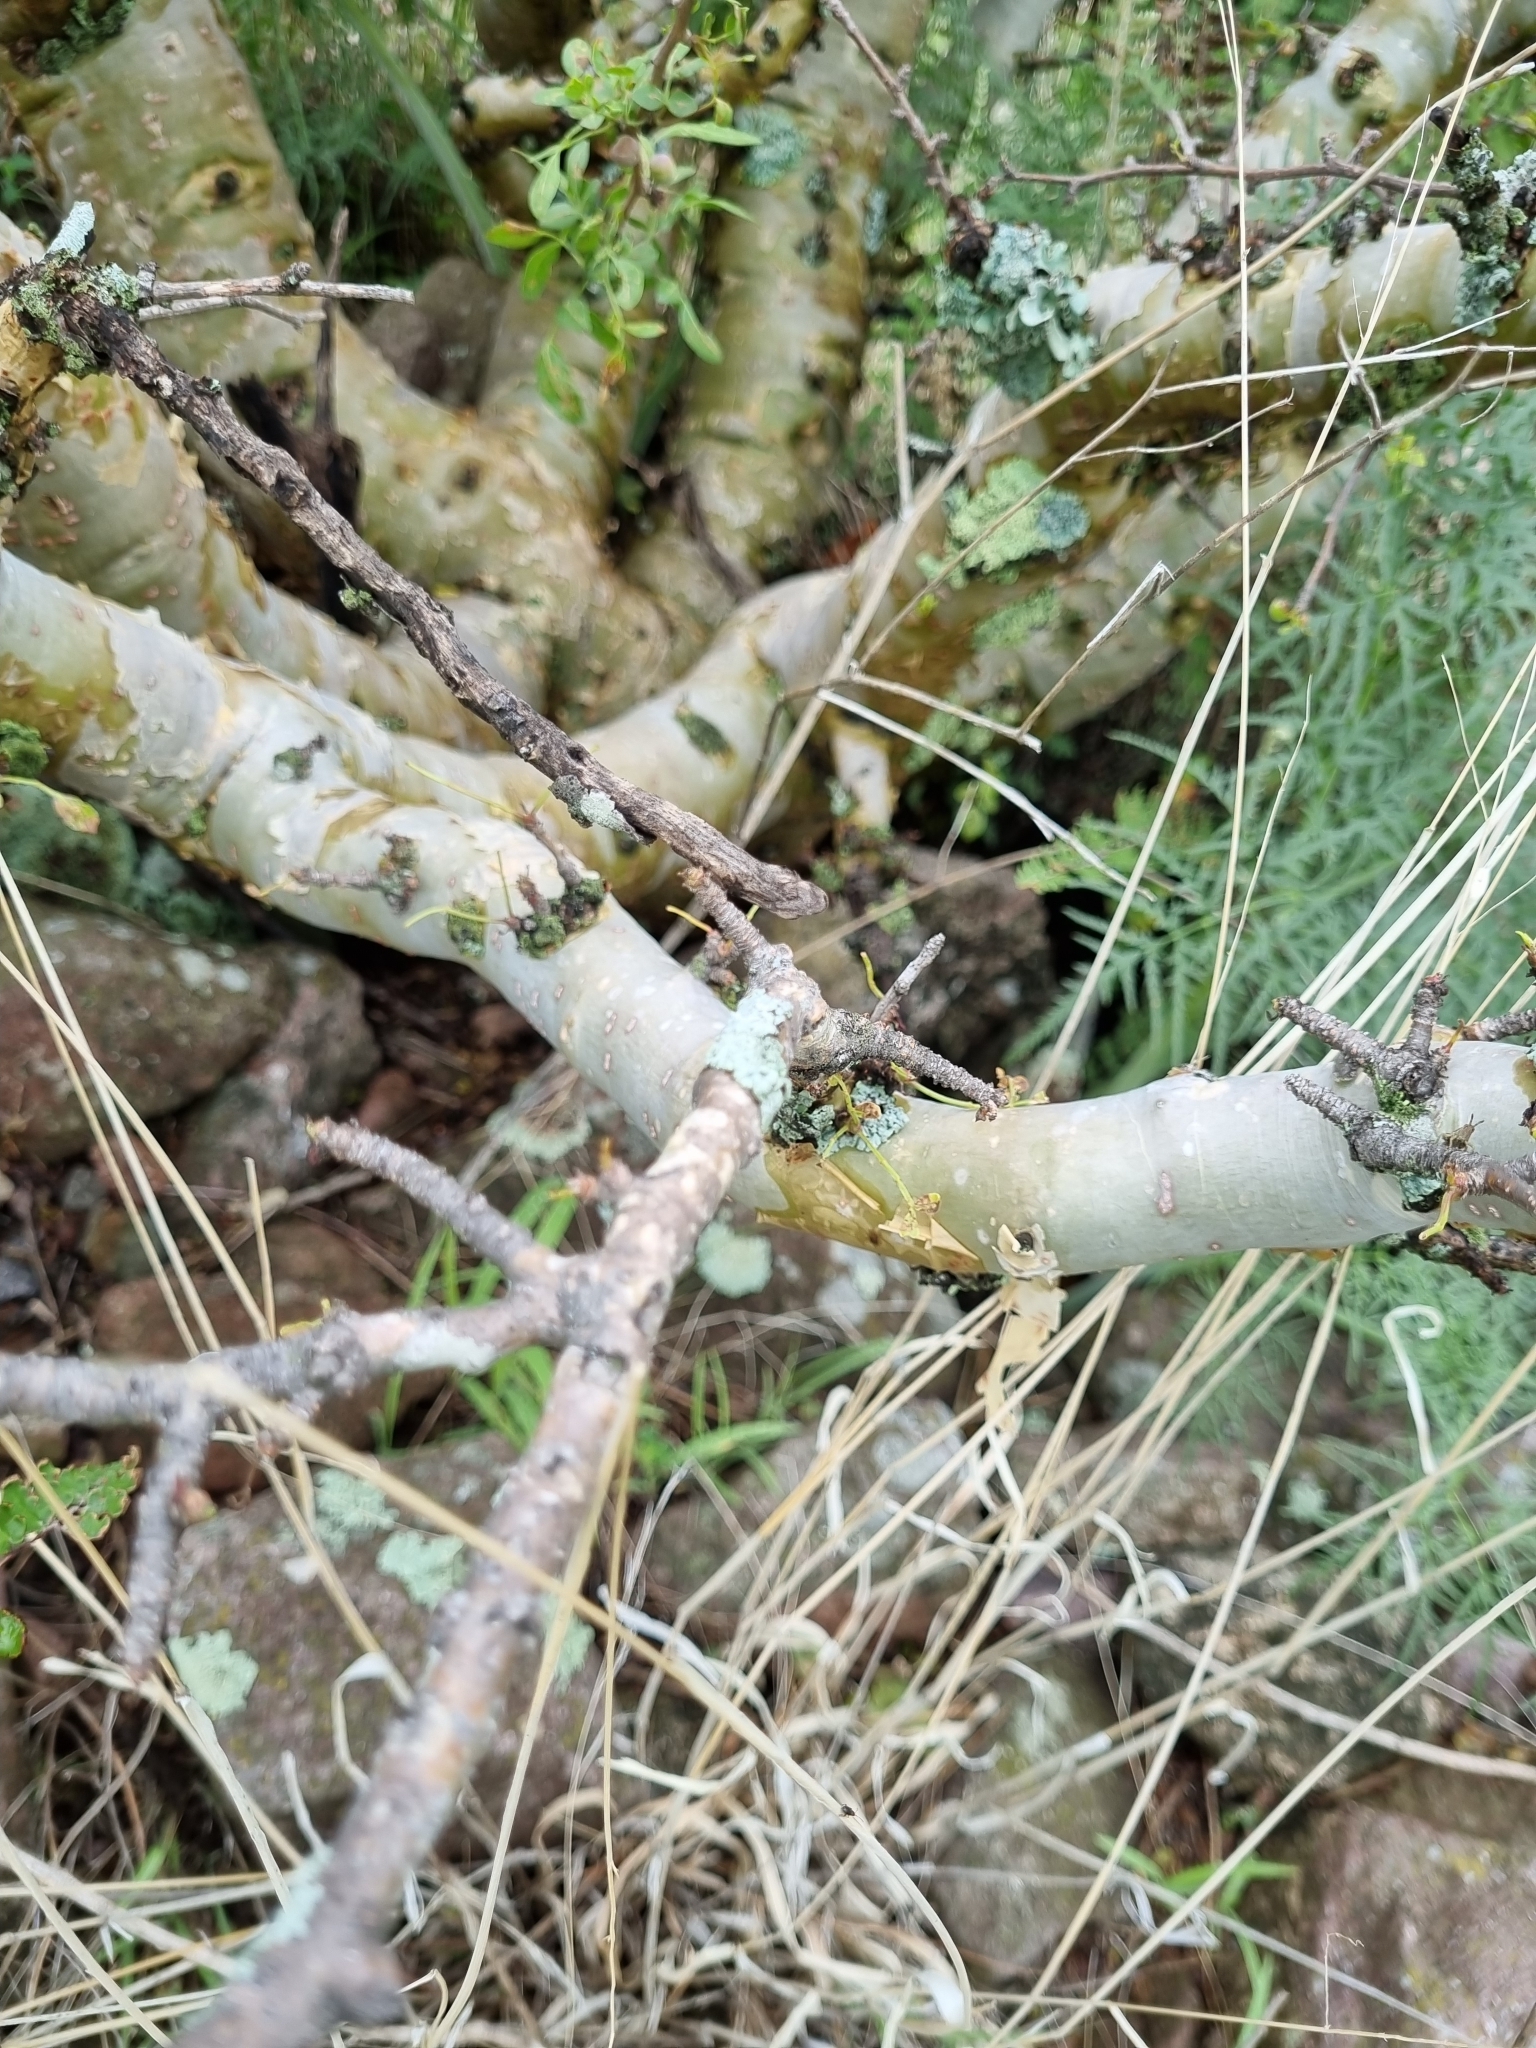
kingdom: Plantae
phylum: Tracheophyta
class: Magnoliopsida
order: Sapindales
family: Burseraceae
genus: Bursera
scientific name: Bursera fagaroides
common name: Elephant tree
